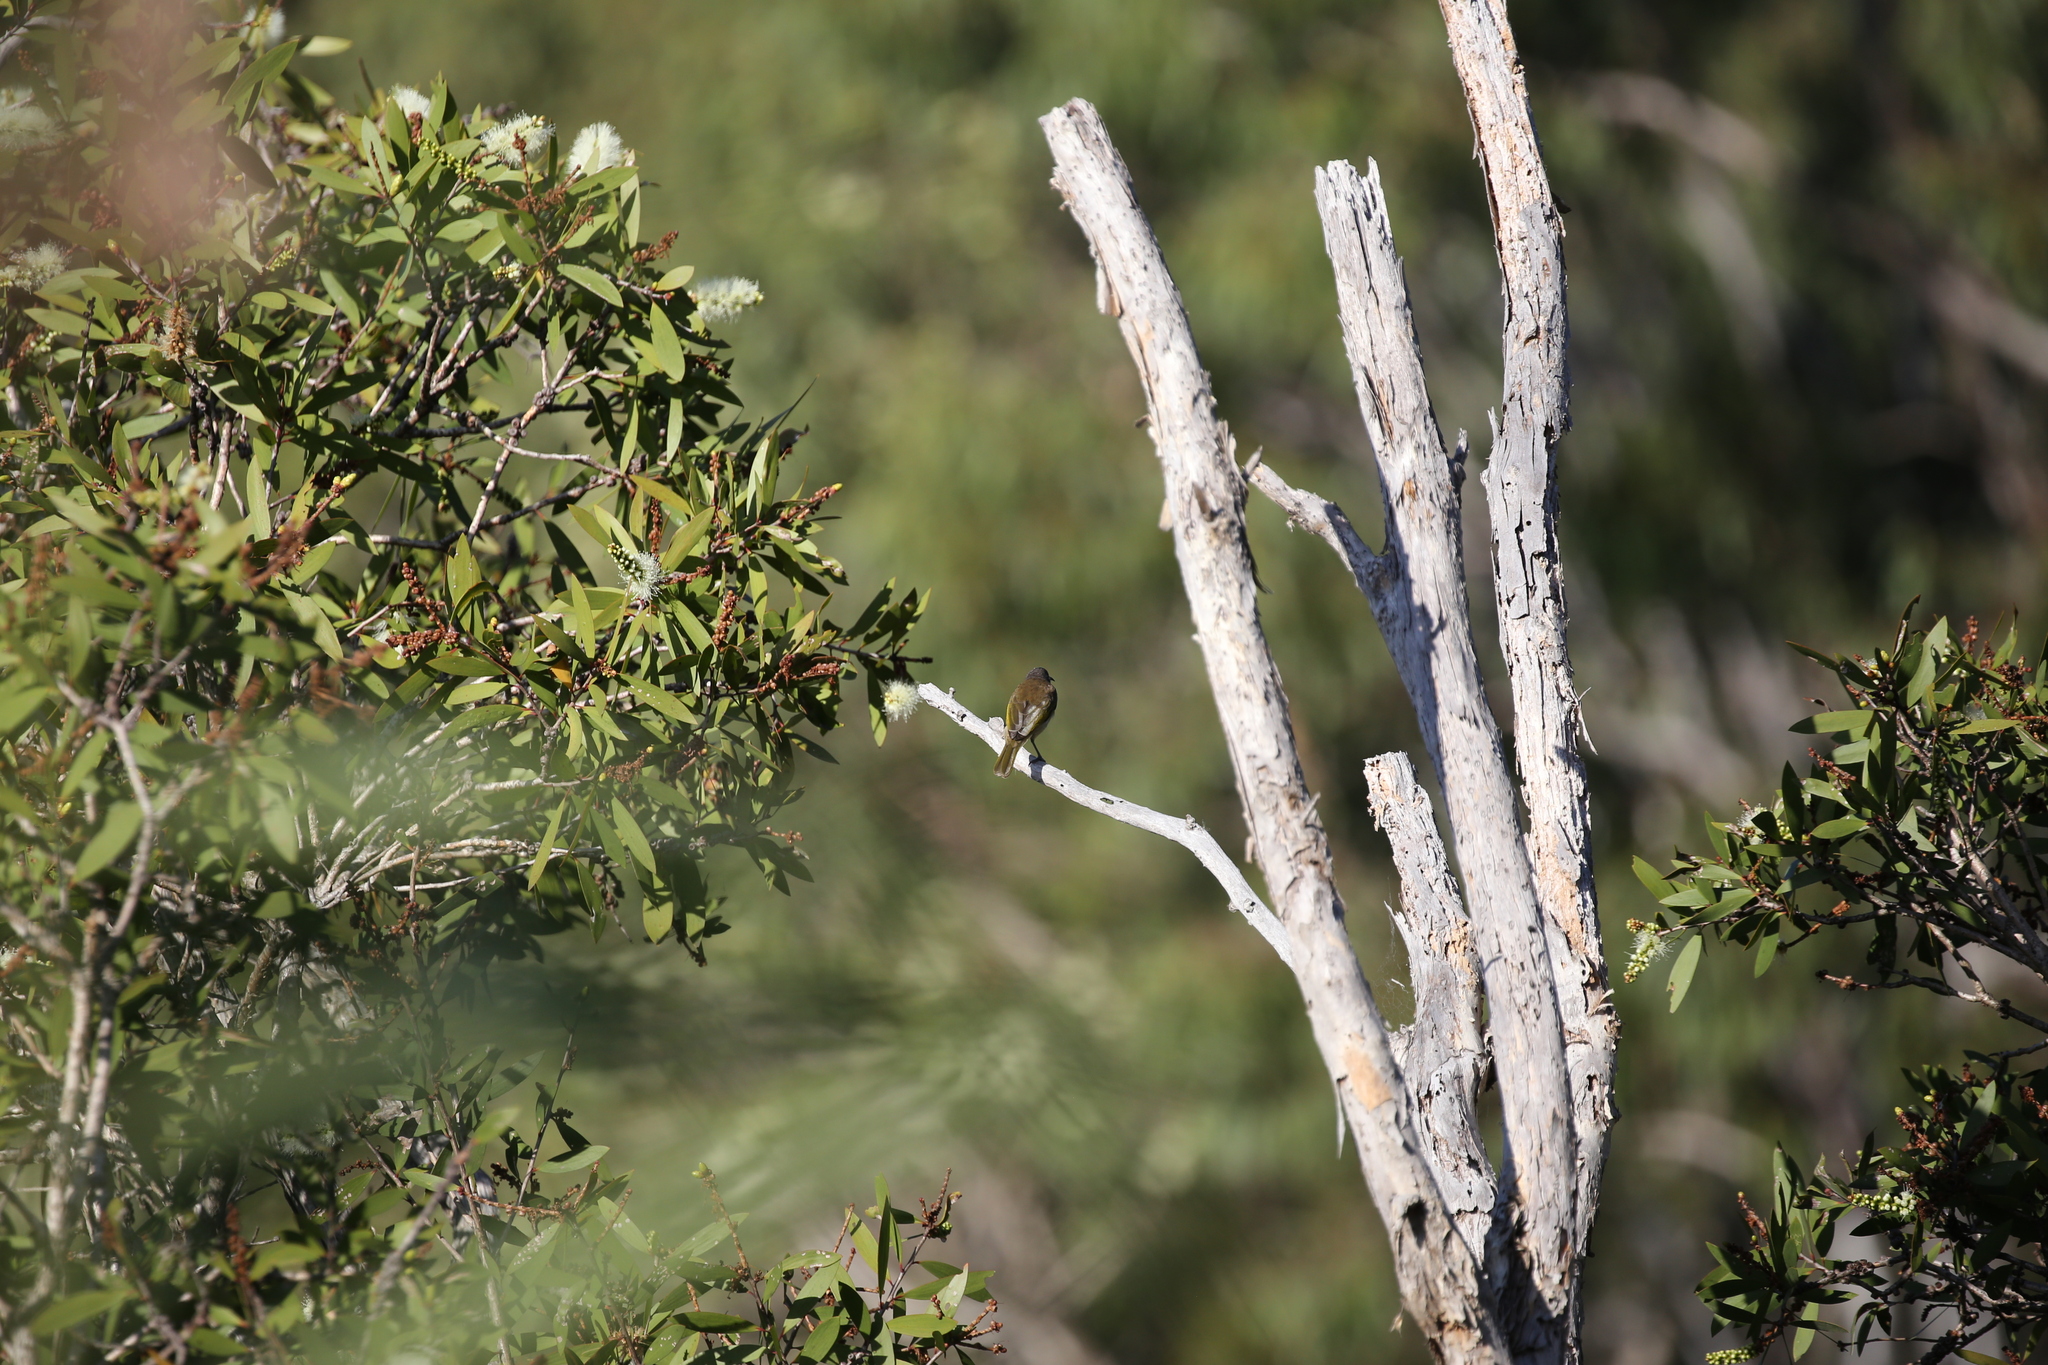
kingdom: Animalia
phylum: Chordata
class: Aves
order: Passeriformes
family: Meliphagidae
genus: Lichmera
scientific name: Lichmera indistincta
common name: Brown honeyeater
